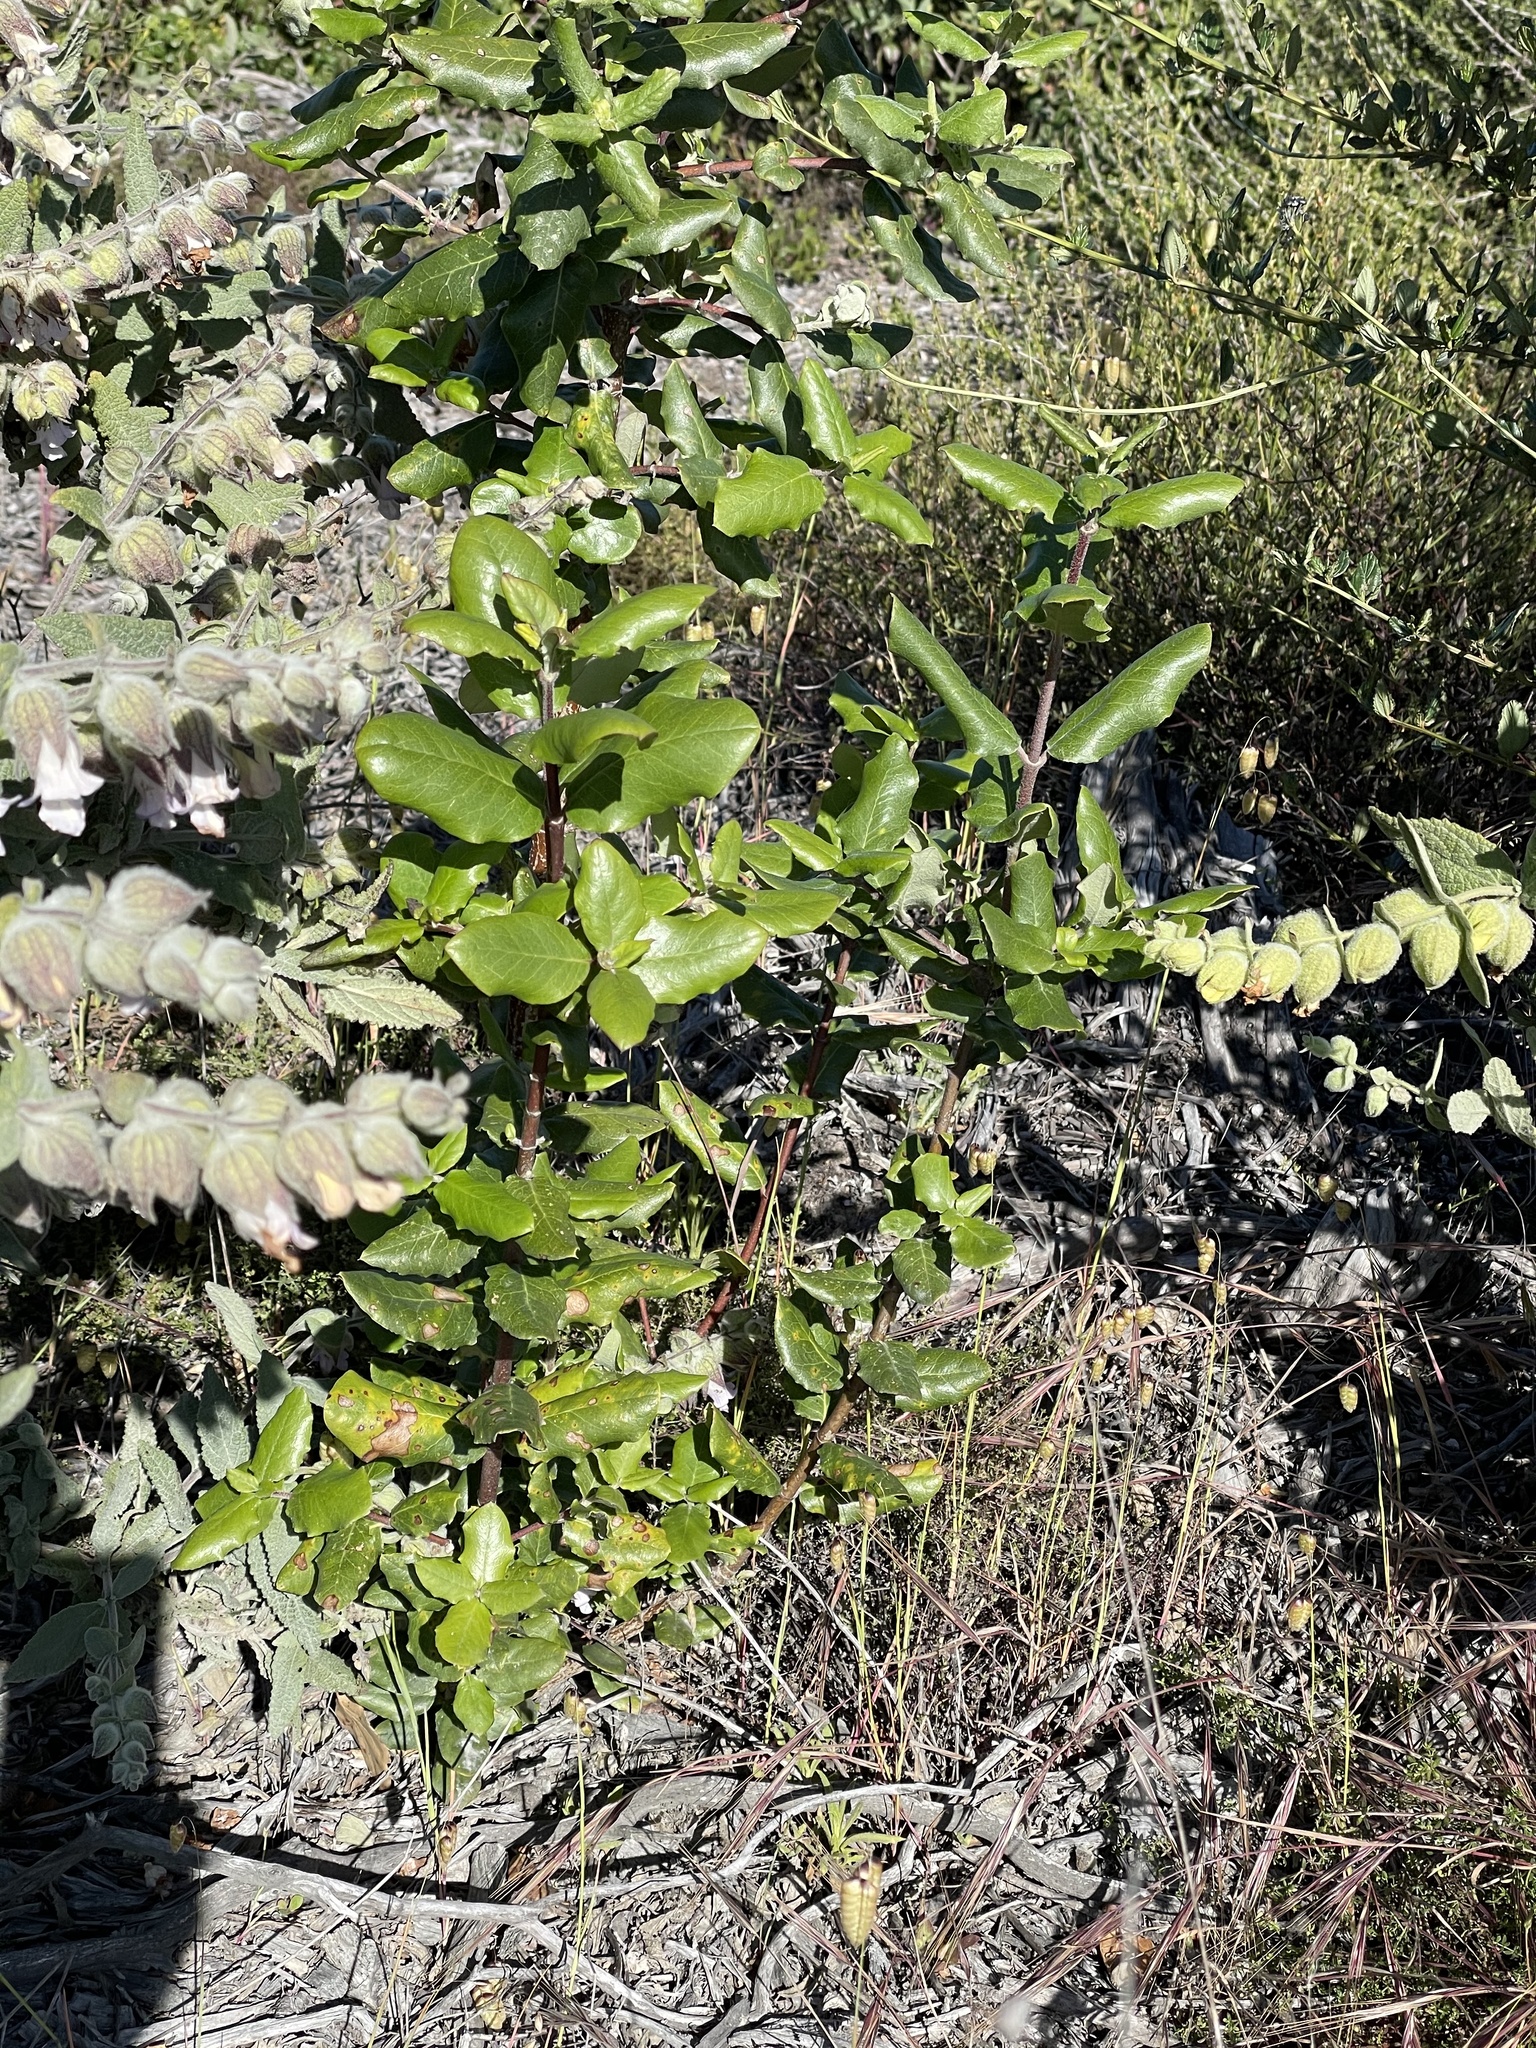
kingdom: Plantae
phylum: Tracheophyta
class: Magnoliopsida
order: Garryales
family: Garryaceae
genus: Garrya
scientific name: Garrya elliptica
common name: Silk-tassel
